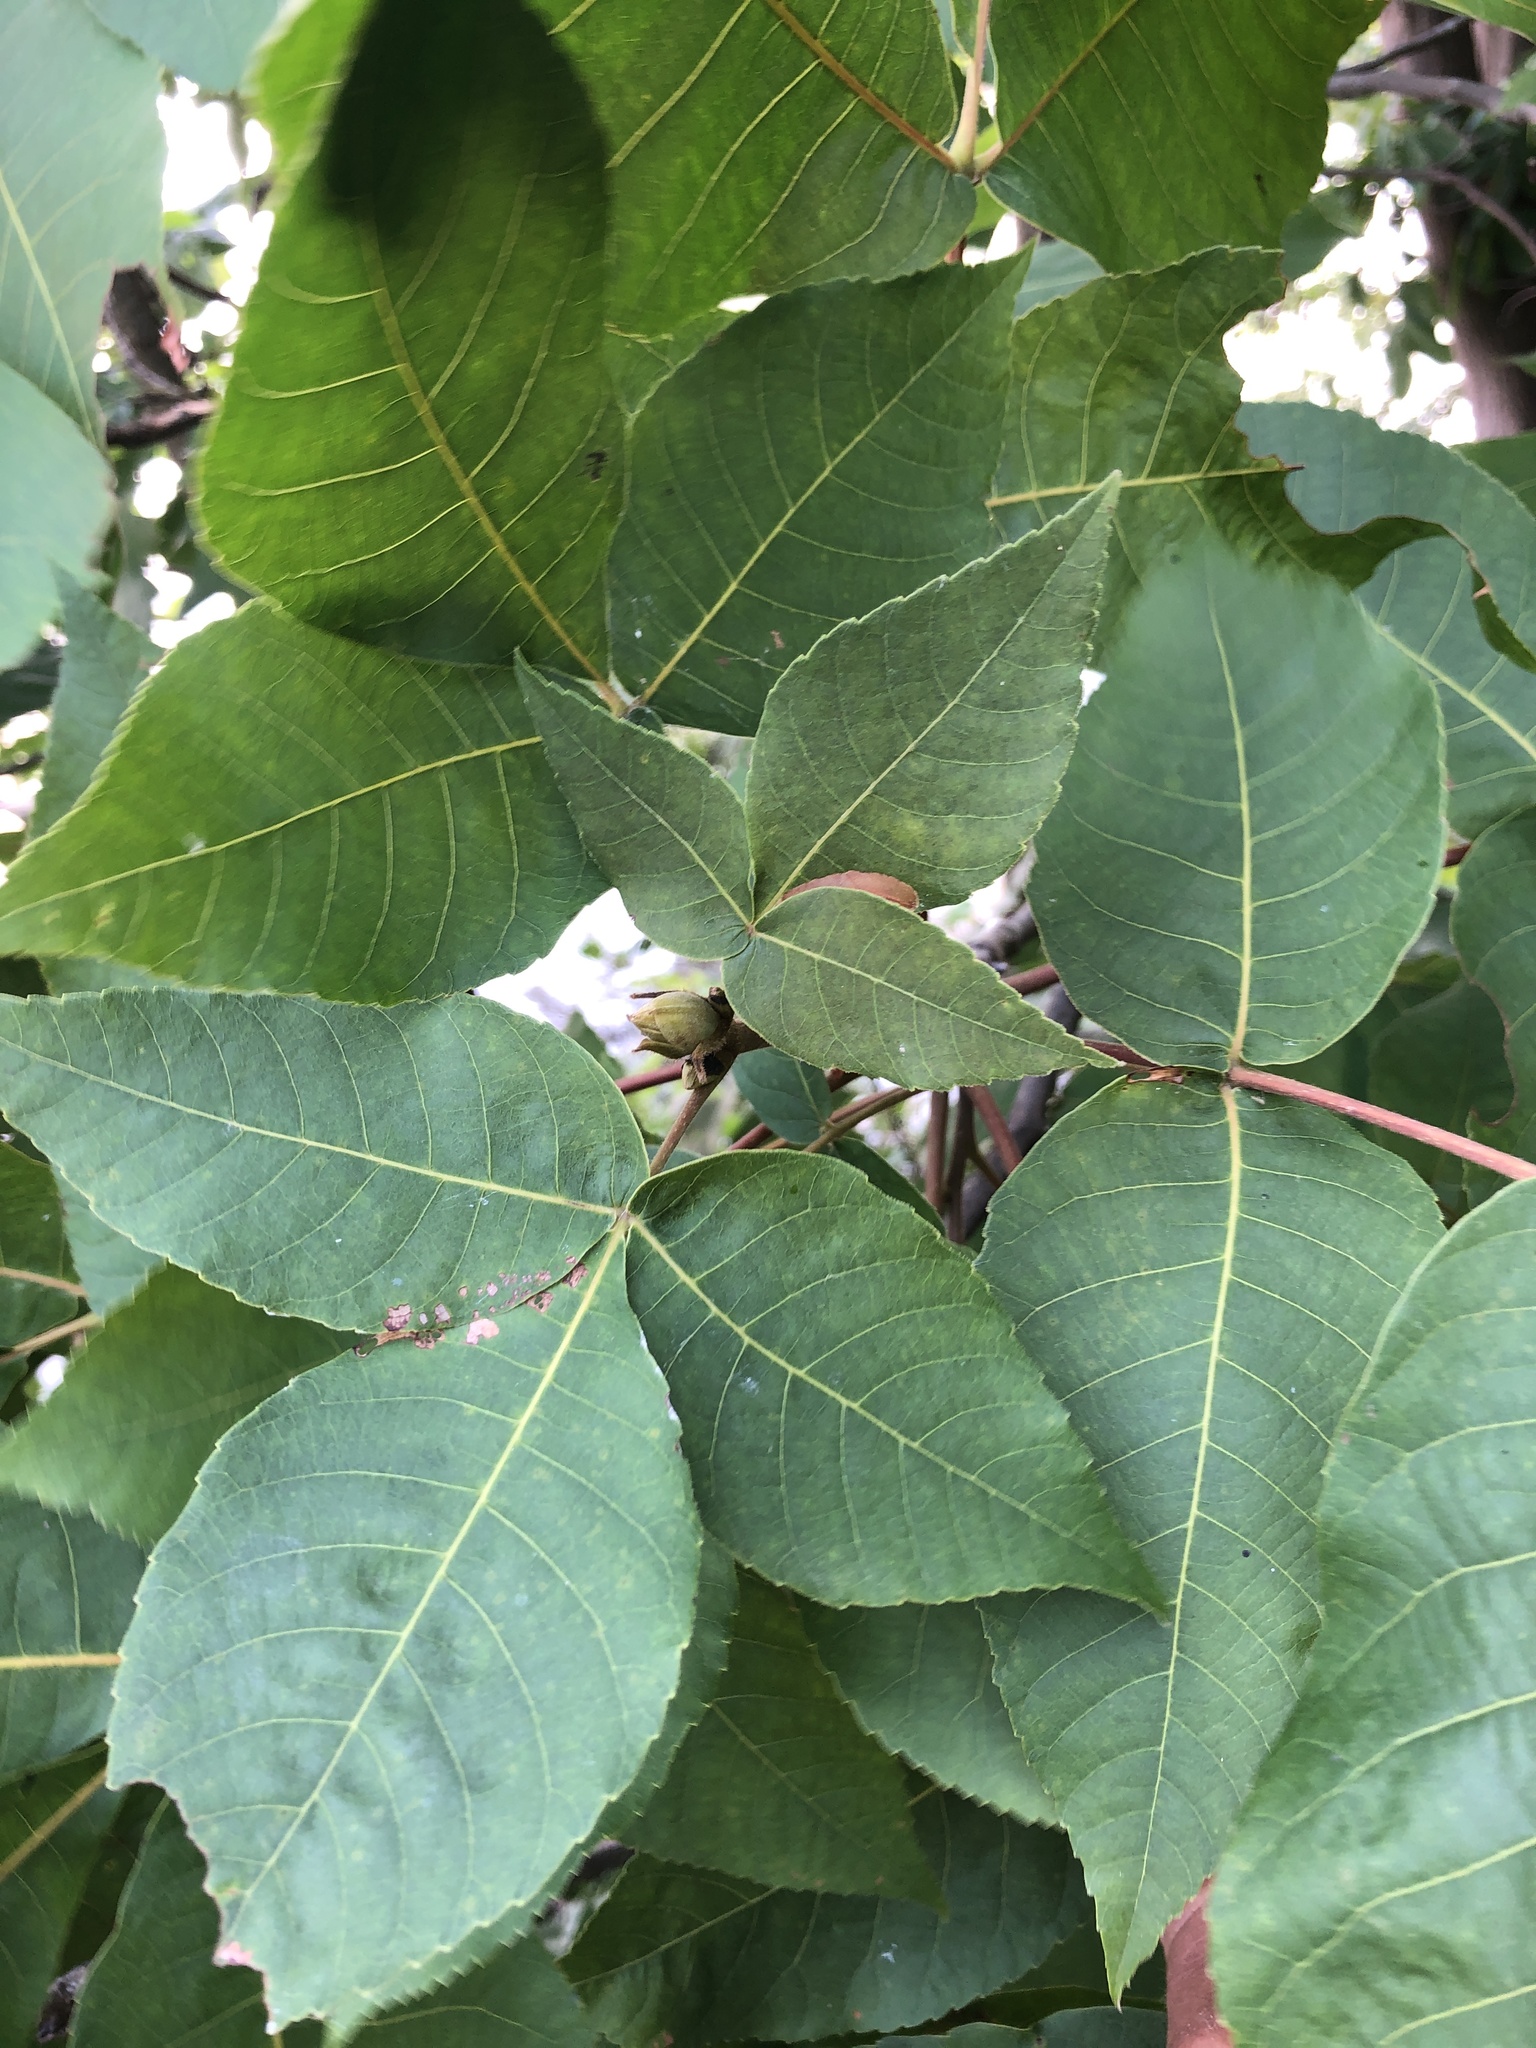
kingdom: Plantae
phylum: Tracheophyta
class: Magnoliopsida
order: Fagales
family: Juglandaceae
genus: Carya
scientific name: Carya glabra
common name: Pignut hickory
